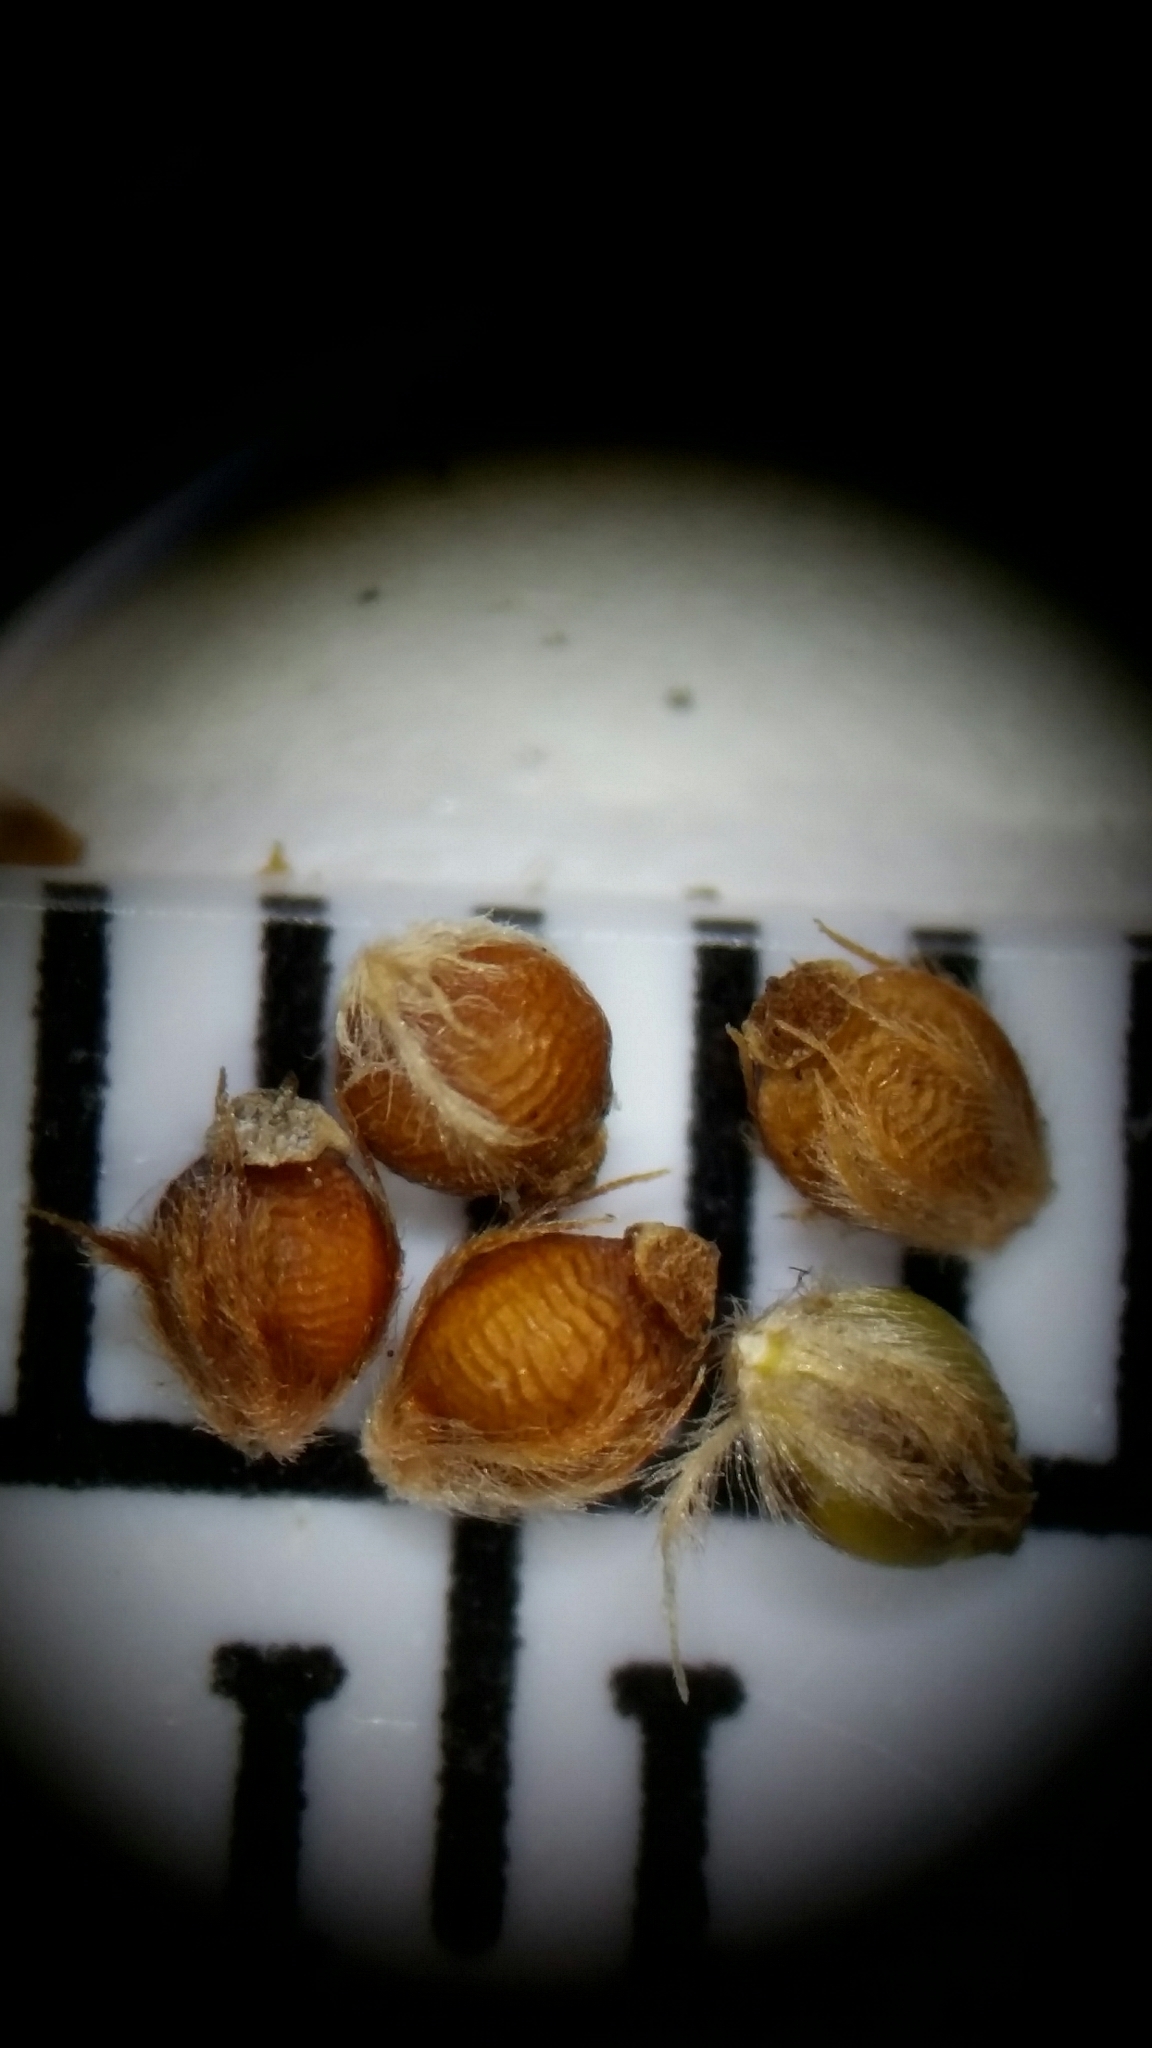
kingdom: Plantae
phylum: Tracheophyta
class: Liliopsida
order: Poales
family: Cyperaceae
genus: Rhynchospora
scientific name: Rhynchospora plumosa
